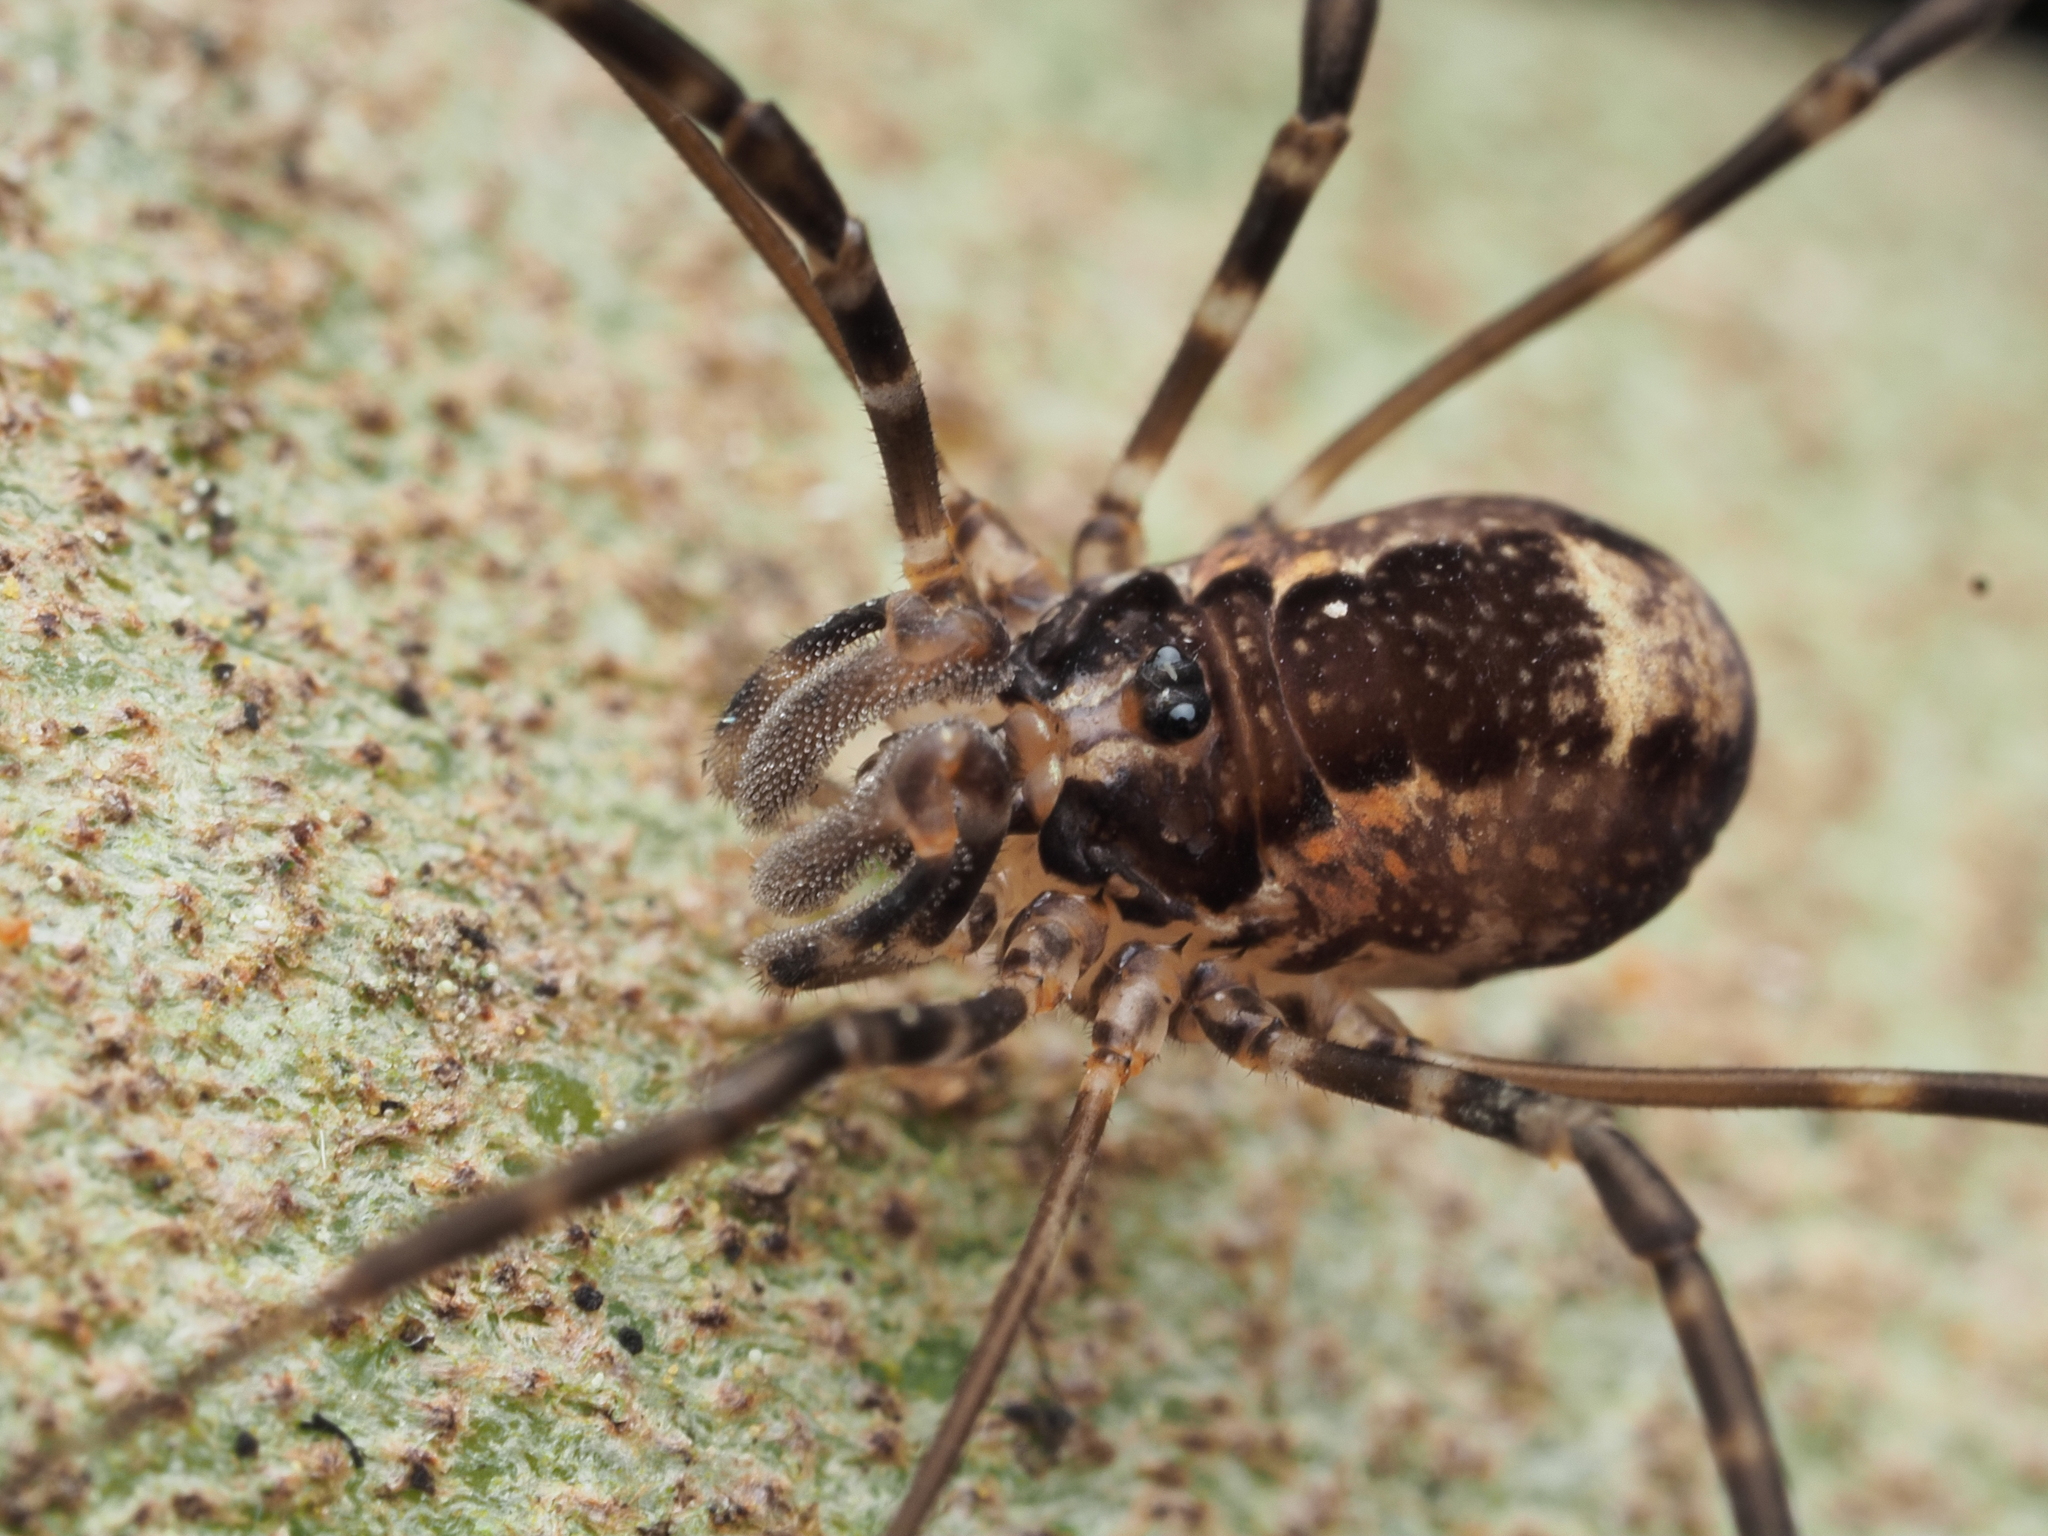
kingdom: Animalia
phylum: Arthropoda
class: Arachnida
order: Opiliones
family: Neopilionidae
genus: Megalopsalis
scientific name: Megalopsalis triascuta
